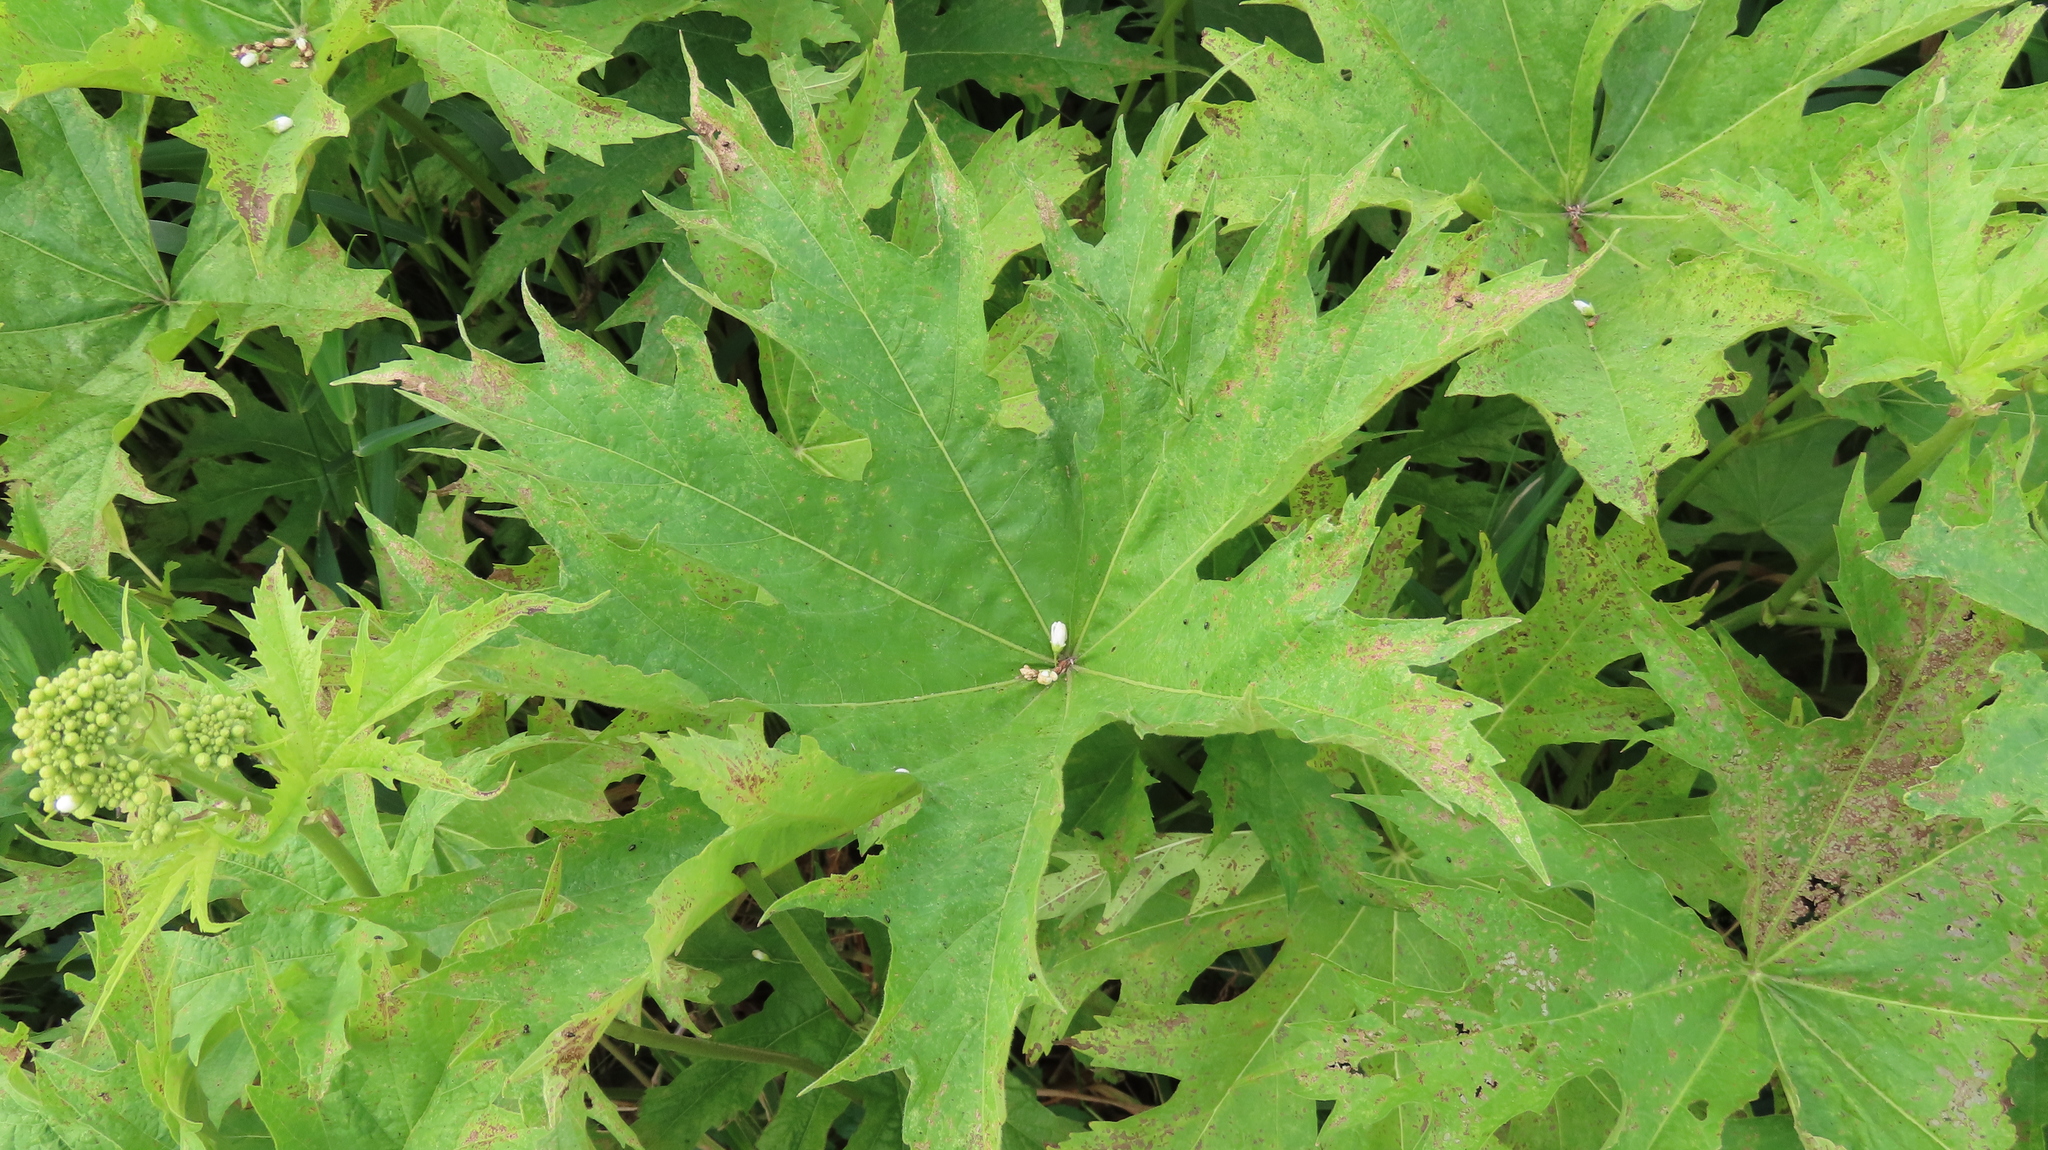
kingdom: Plantae
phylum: Tracheophyta
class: Magnoliopsida
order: Malvales
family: Malvaceae
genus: Napaea
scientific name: Napaea dioica
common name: Glade-mallow
